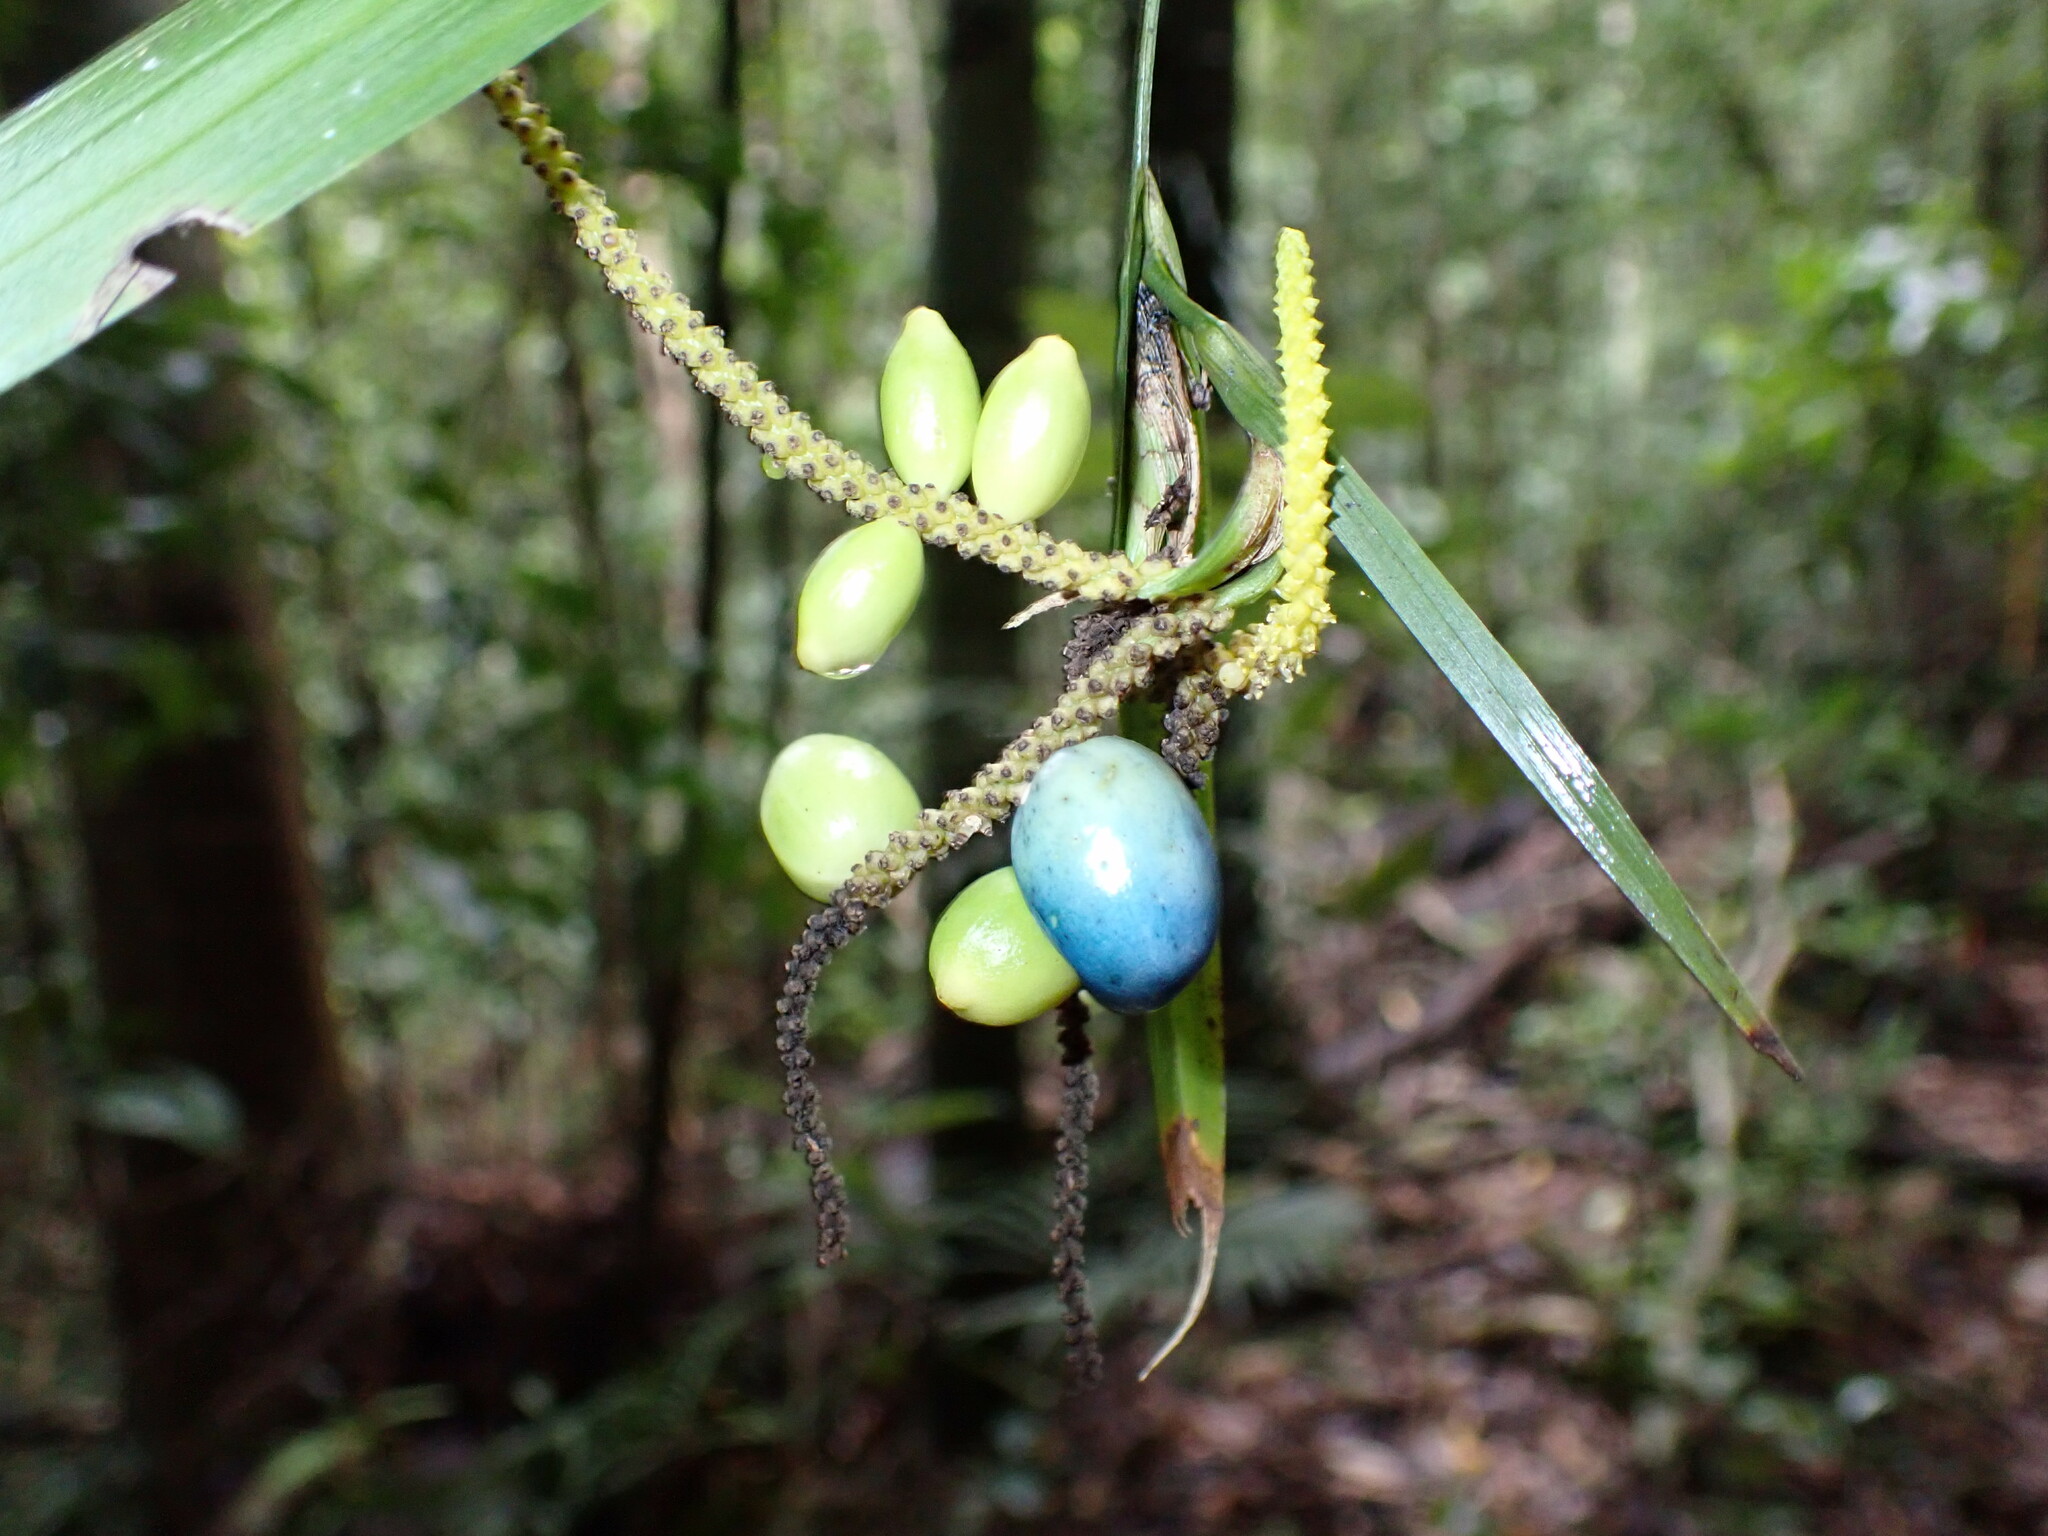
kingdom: Plantae
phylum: Tracheophyta
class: Liliopsida
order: Alismatales
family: Araceae
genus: Gymnostachys
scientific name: Gymnostachys anceps
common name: Settler's-flax
